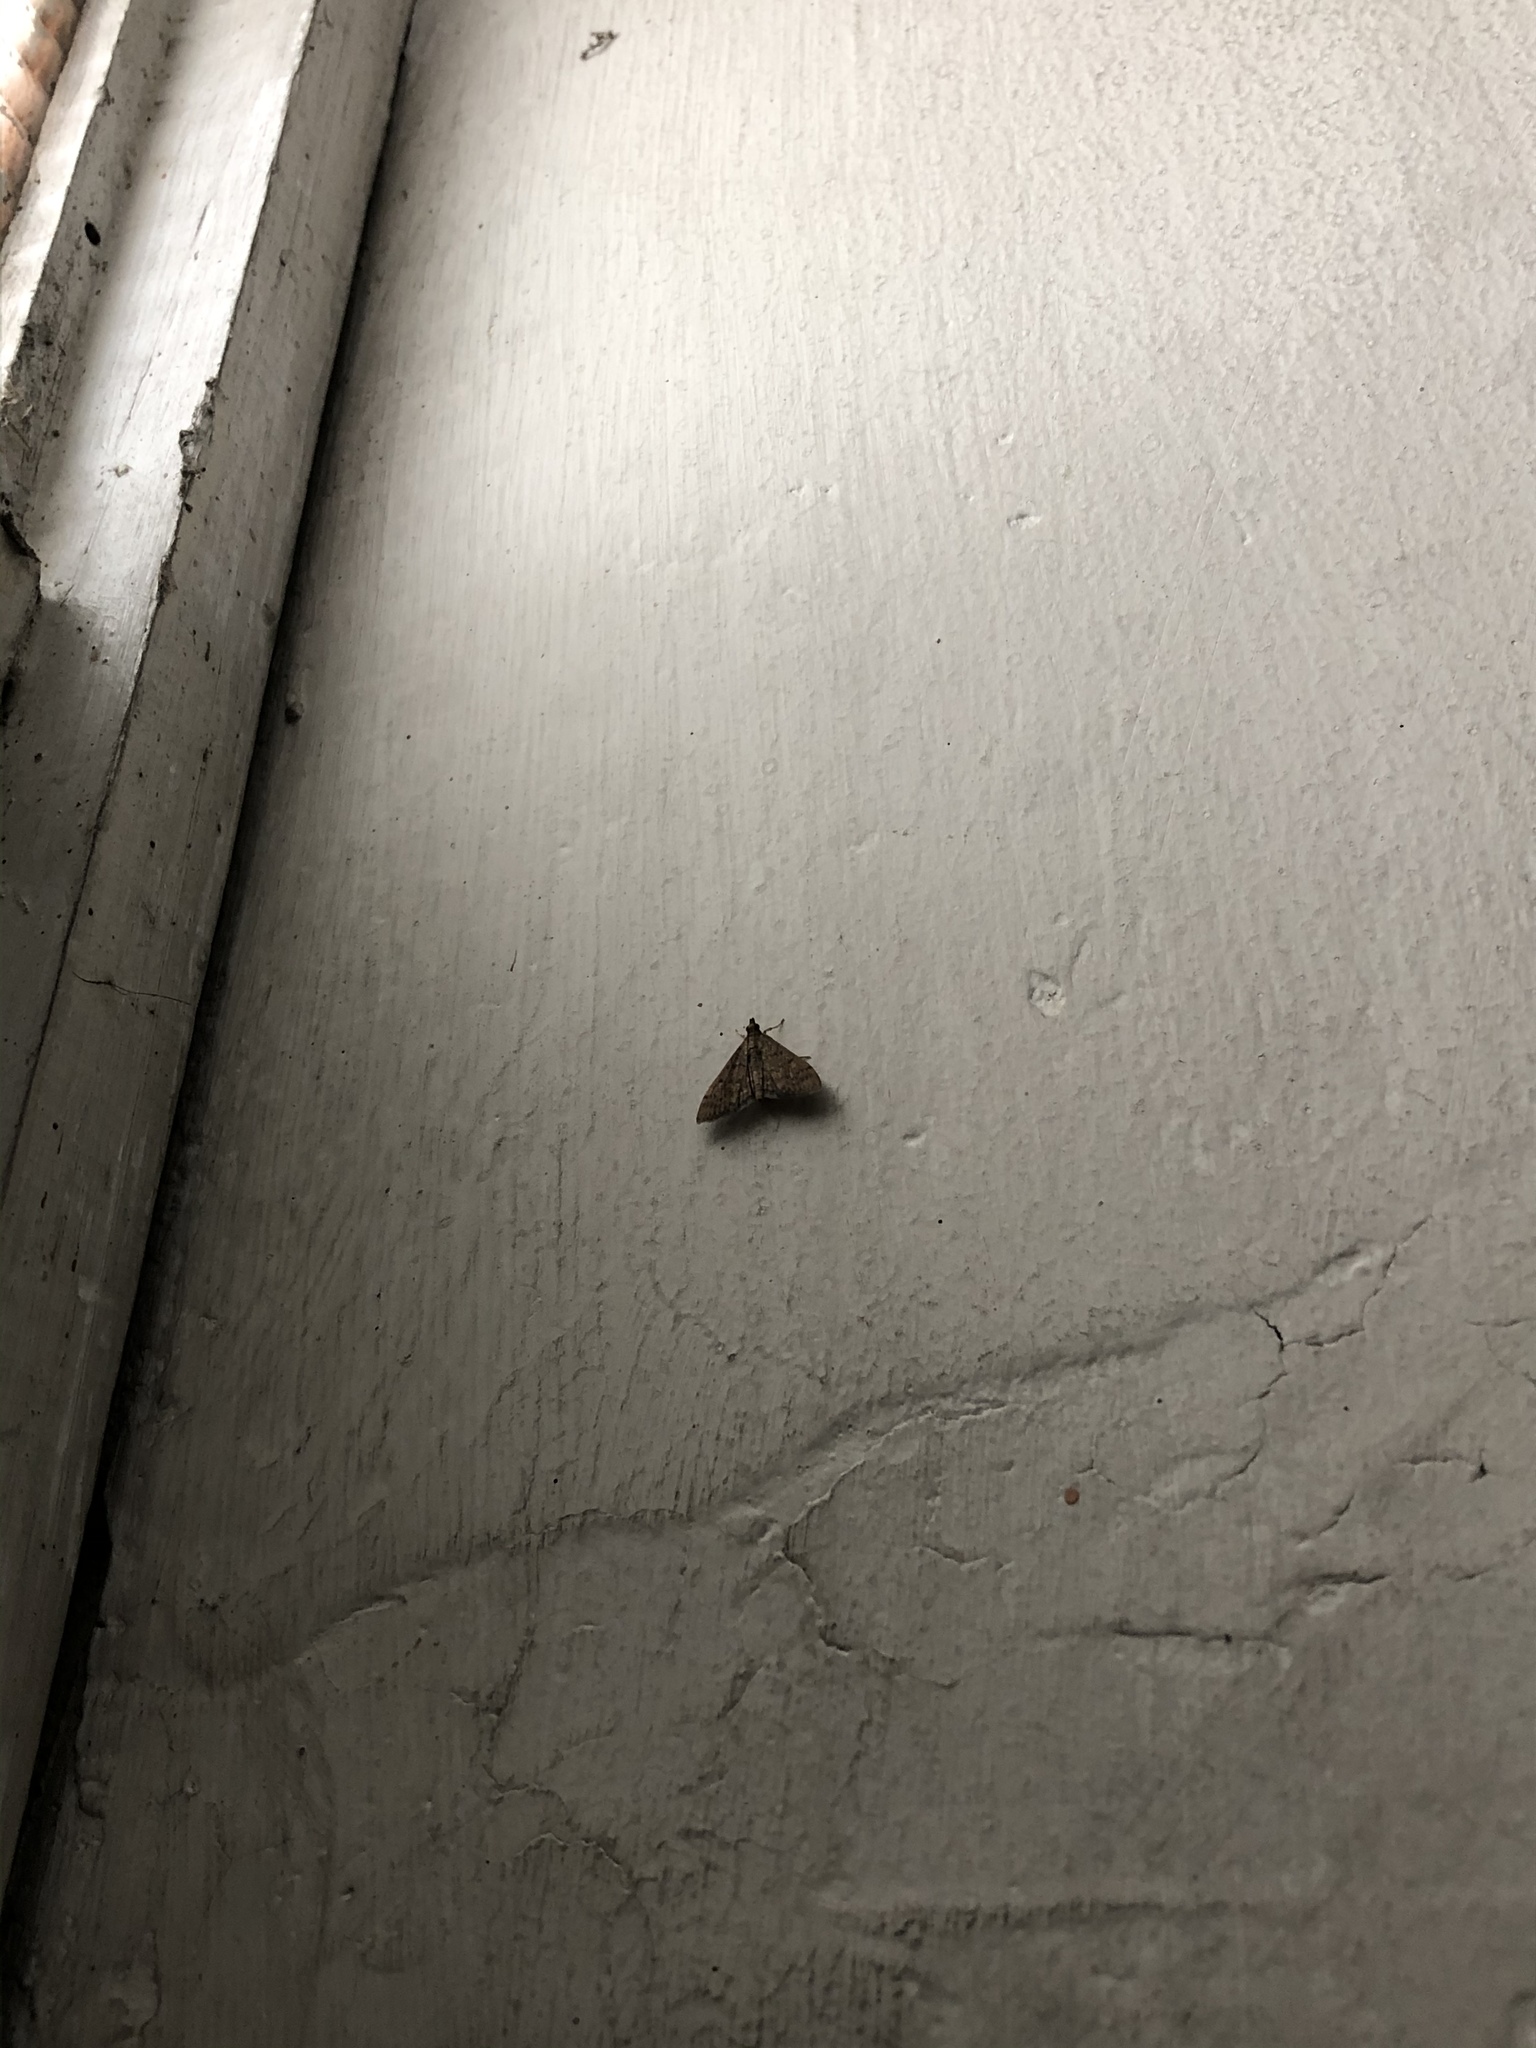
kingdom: Animalia
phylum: Arthropoda
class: Insecta
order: Lepidoptera
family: Crambidae
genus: Herpetogramma
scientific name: Herpetogramma phaeopteralis
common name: Dusky herpetogramma moth
